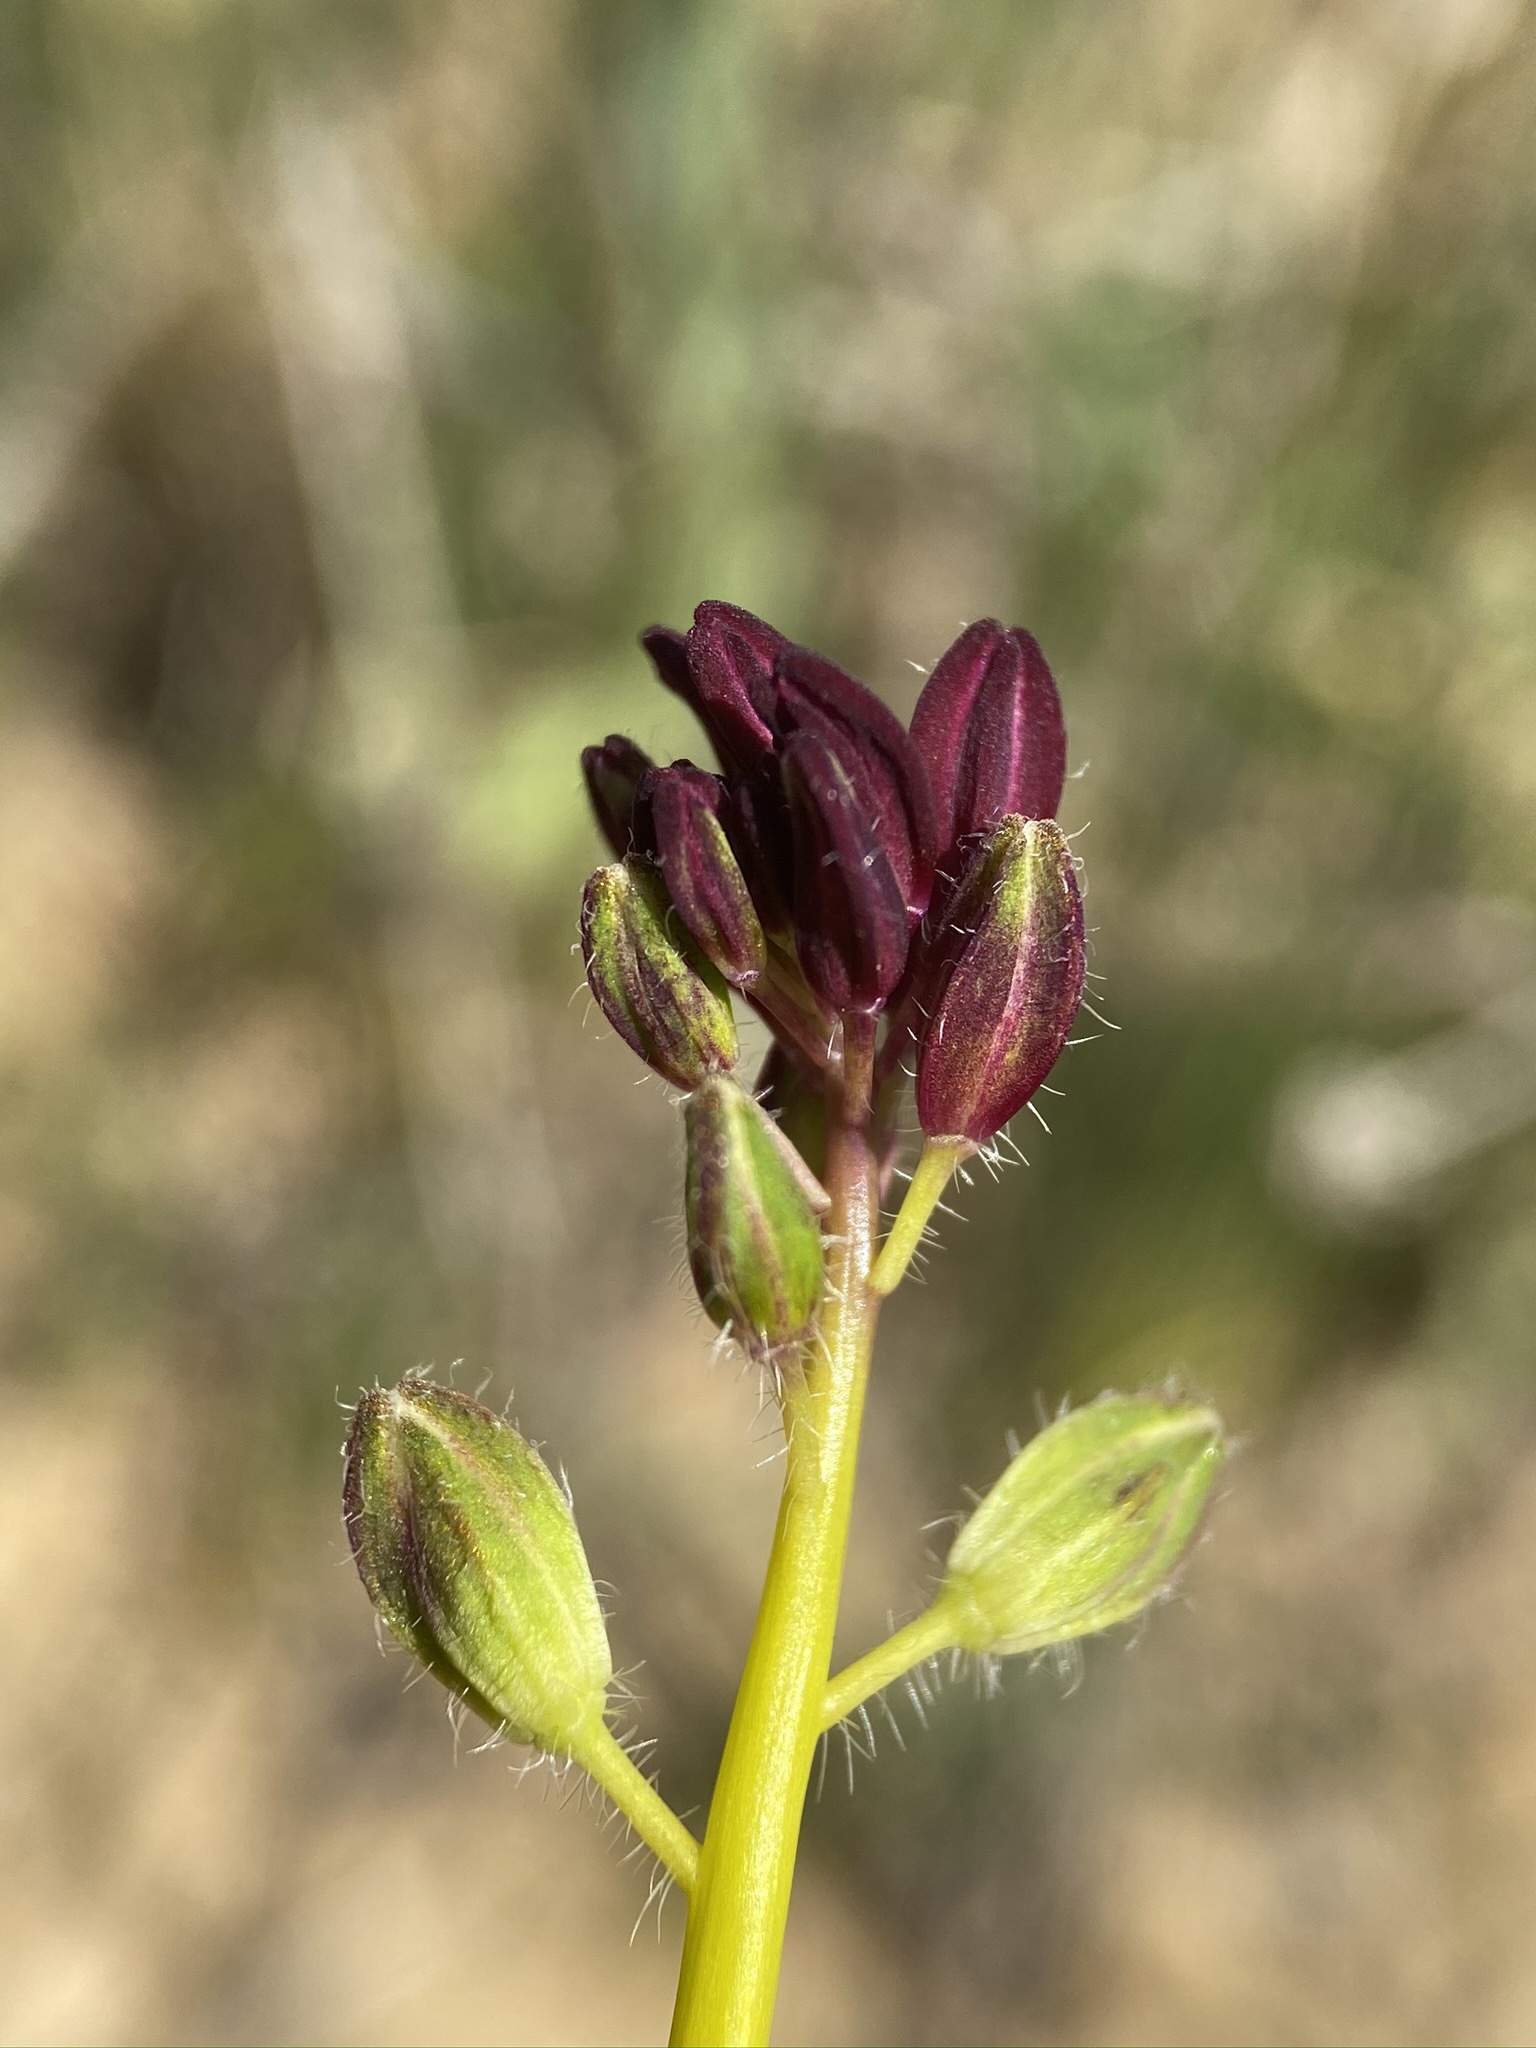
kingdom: Plantae
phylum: Tracheophyta
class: Magnoliopsida
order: Brassicales
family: Brassicaceae
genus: Streptanthus
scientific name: Streptanthus inflatus
